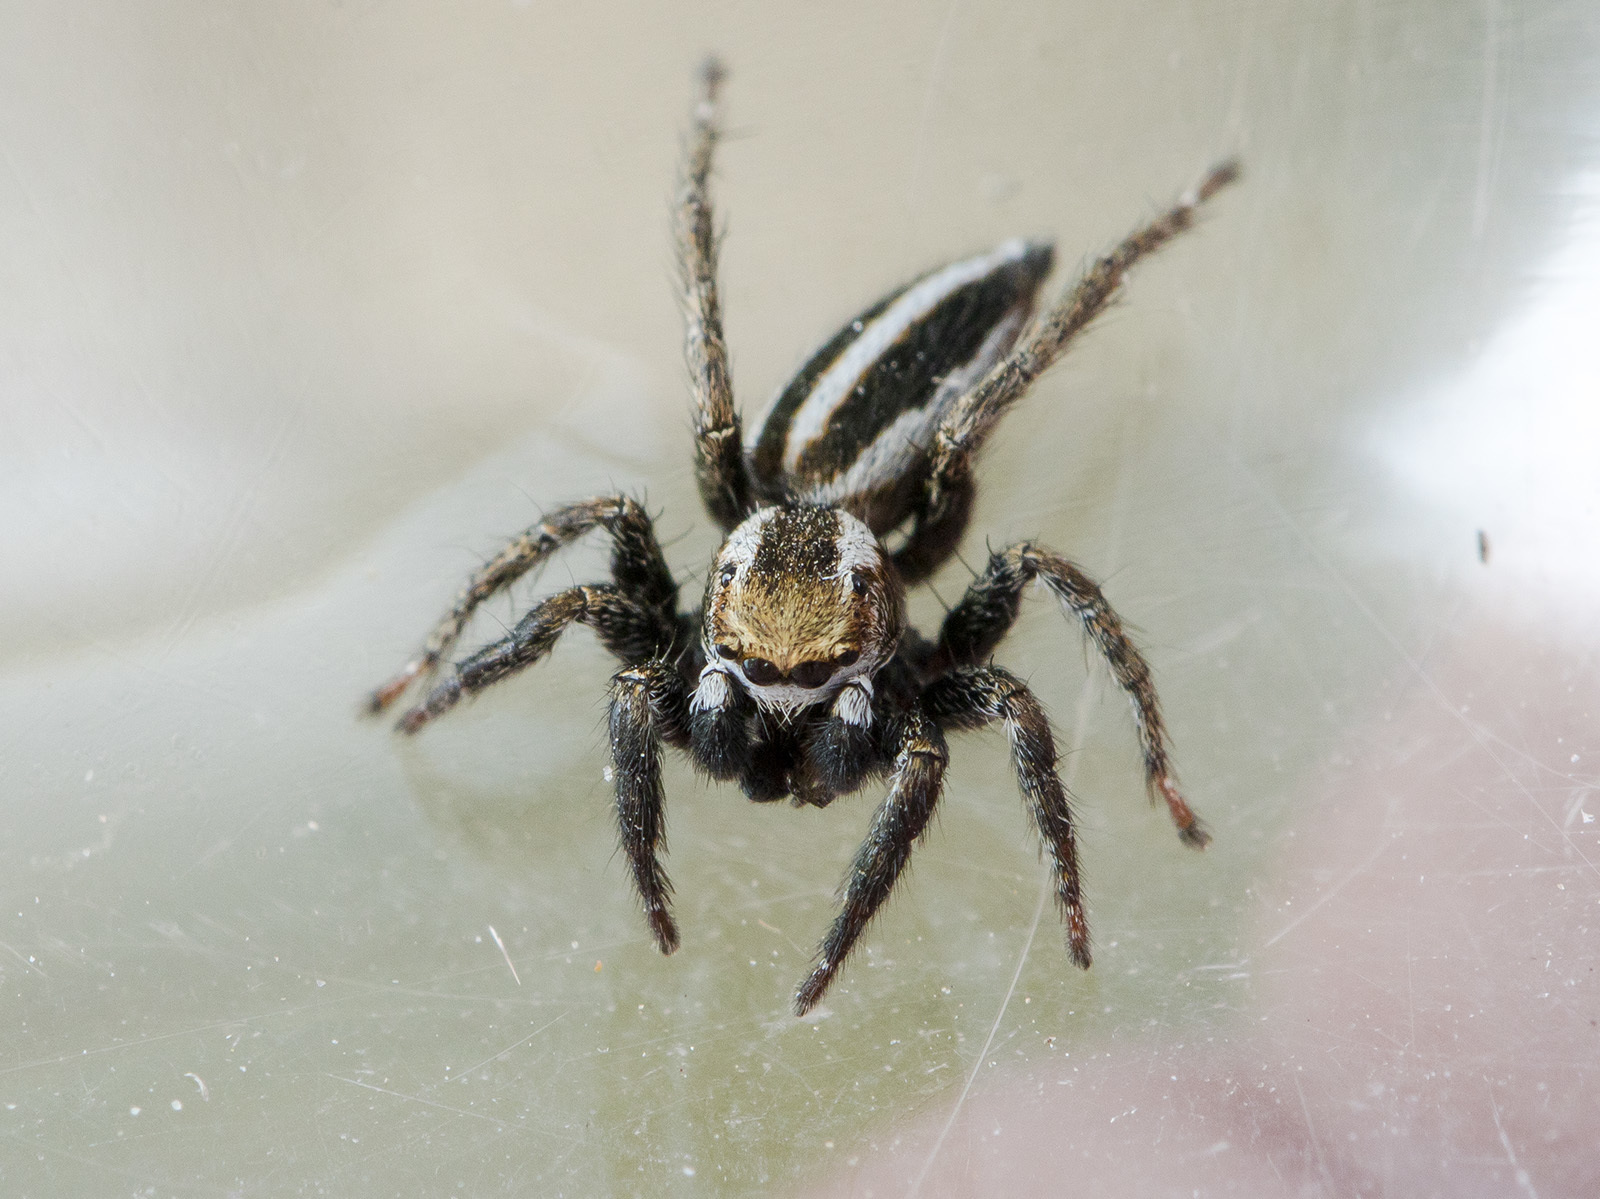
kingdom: Animalia
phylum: Arthropoda
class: Arachnida
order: Araneae
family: Salticidae
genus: Phlegra
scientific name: Phlegra obscurimagna
